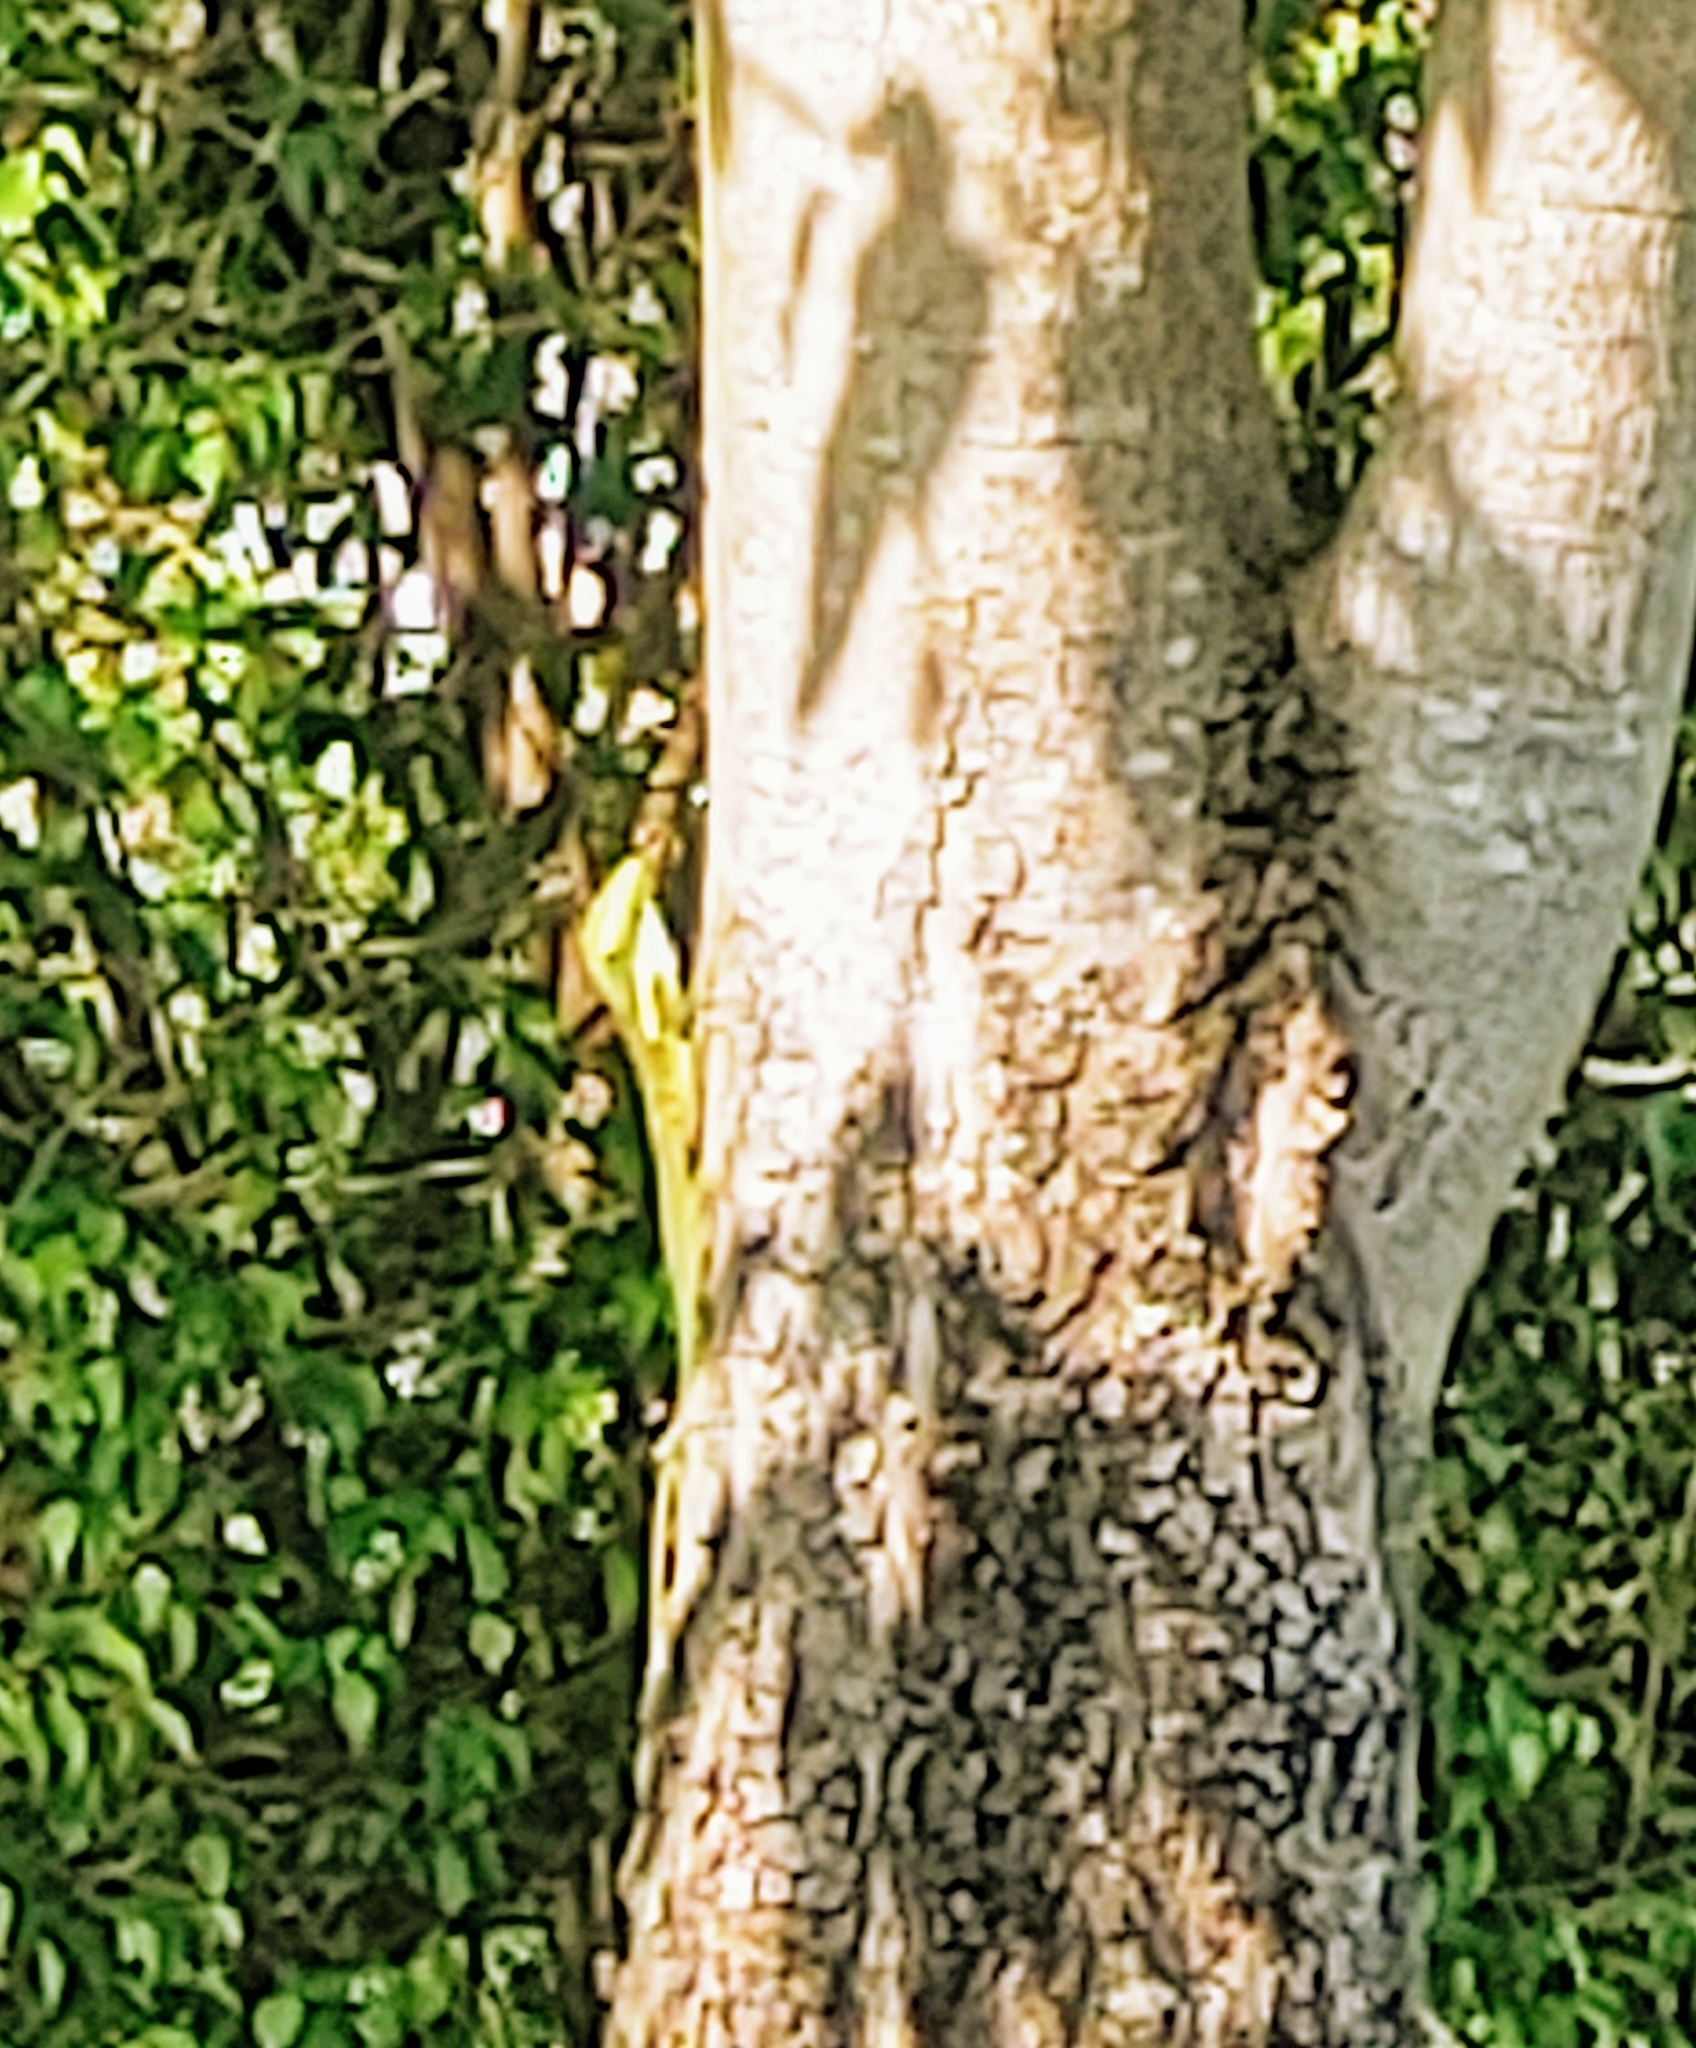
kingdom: Animalia
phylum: Chordata
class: Squamata
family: Dactyloidae
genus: Anolis
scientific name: Anolis equestris
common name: Knight anole
